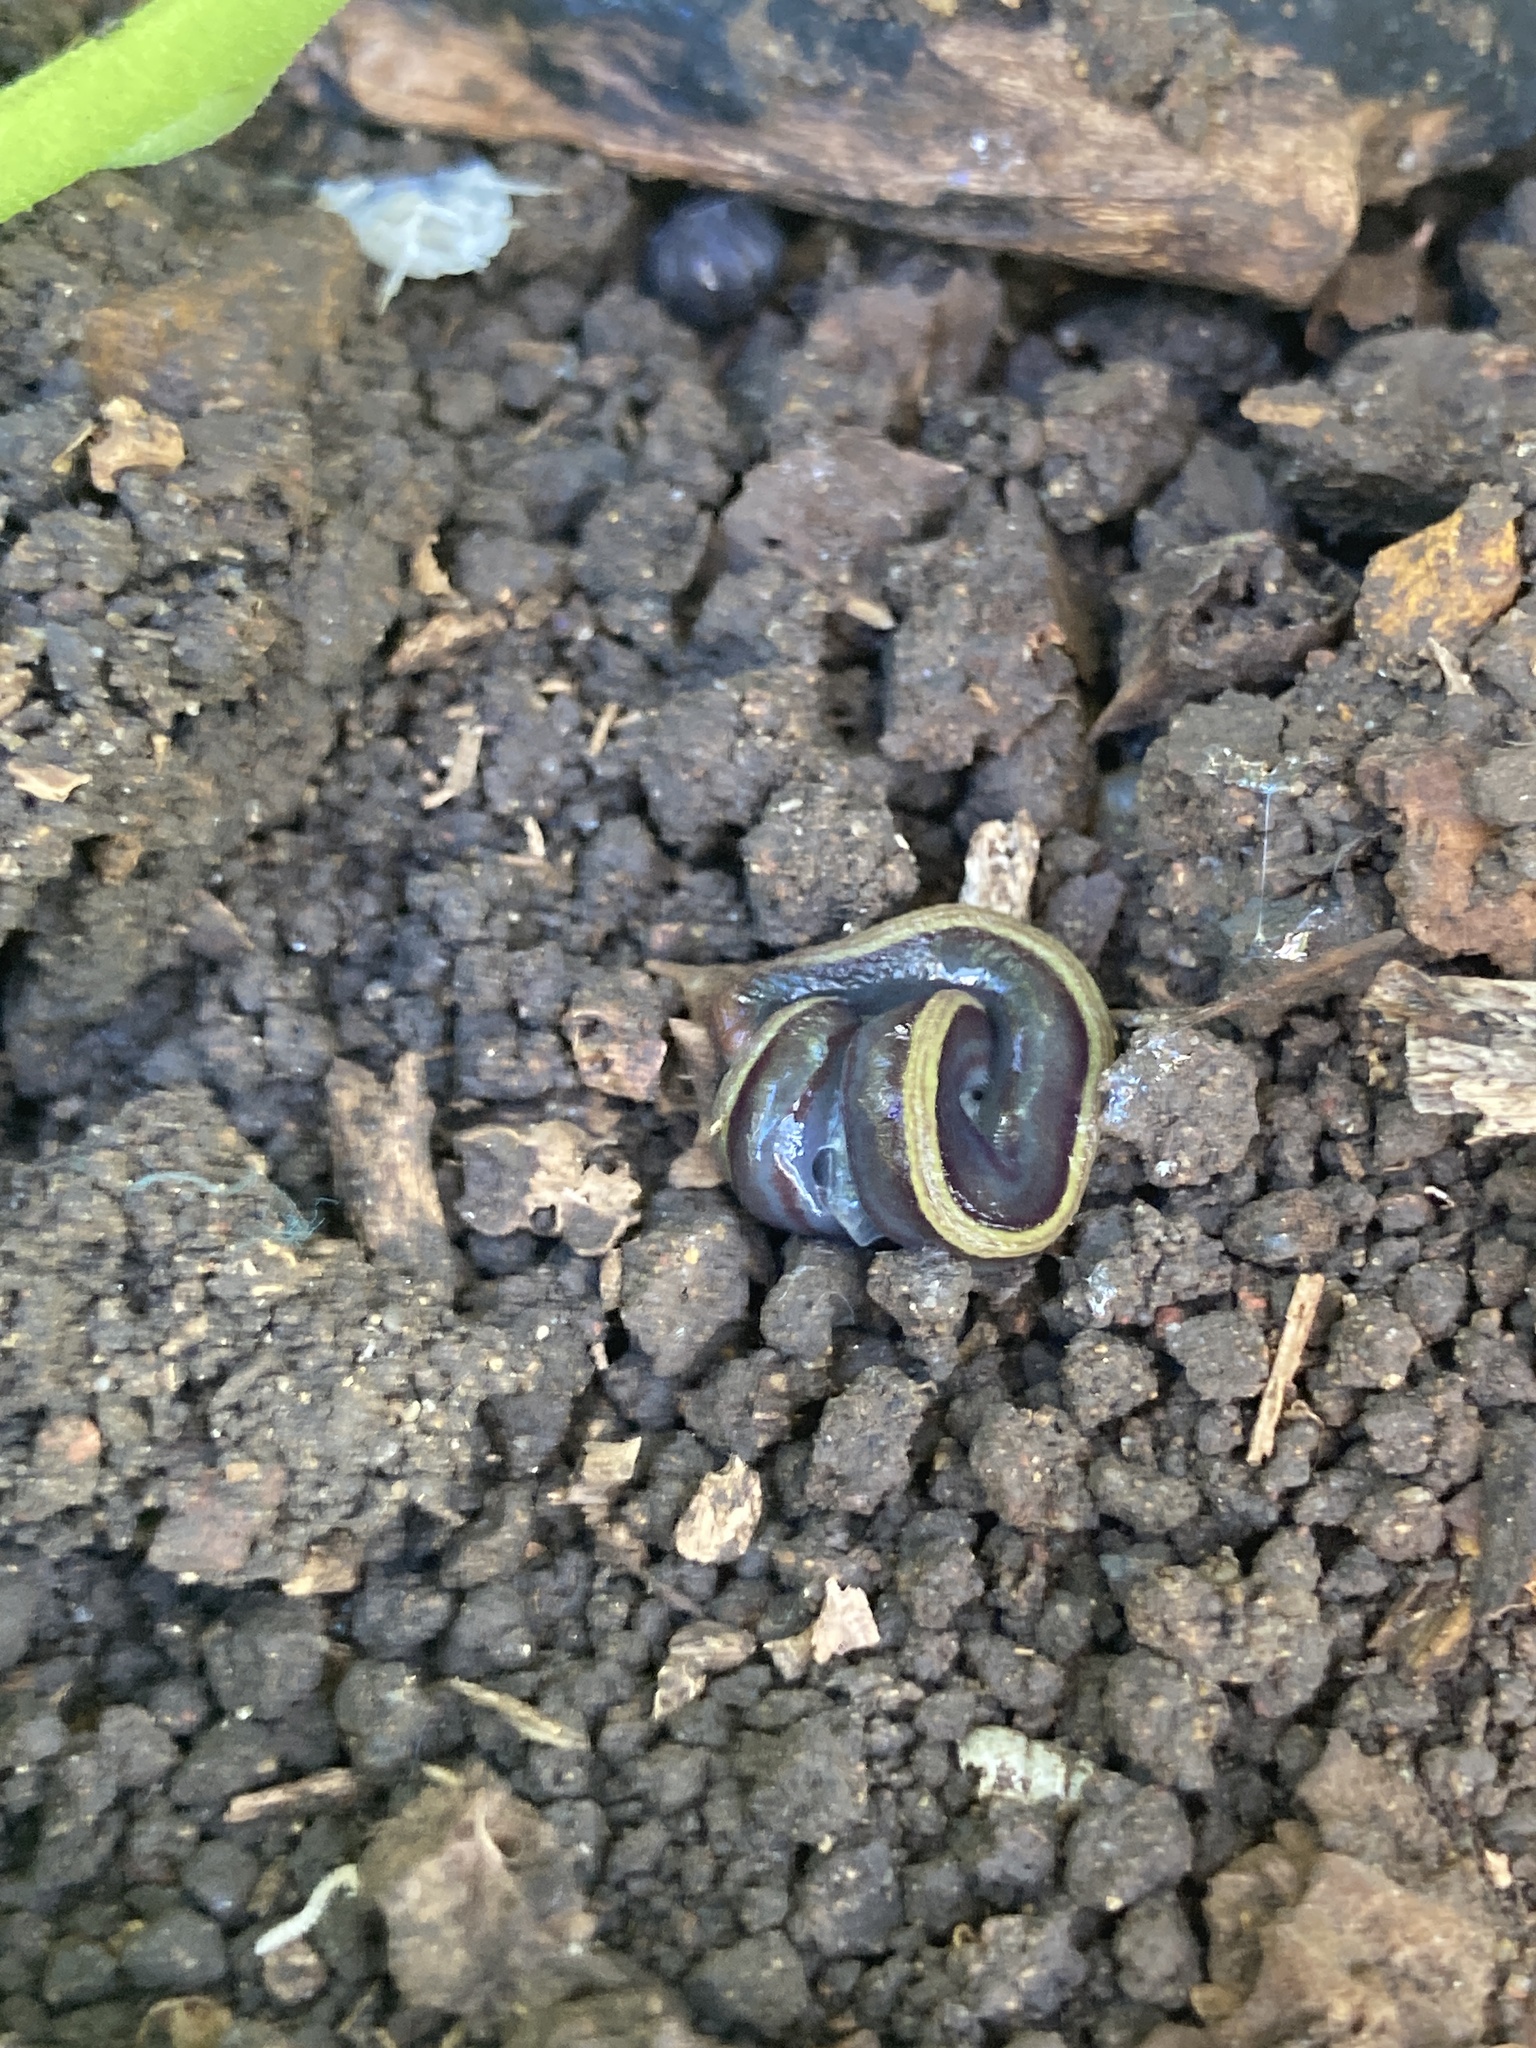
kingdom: Animalia
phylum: Platyhelminthes
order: Tricladida
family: Geoplanidae
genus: Caenoplana
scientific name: Caenoplana variegata
